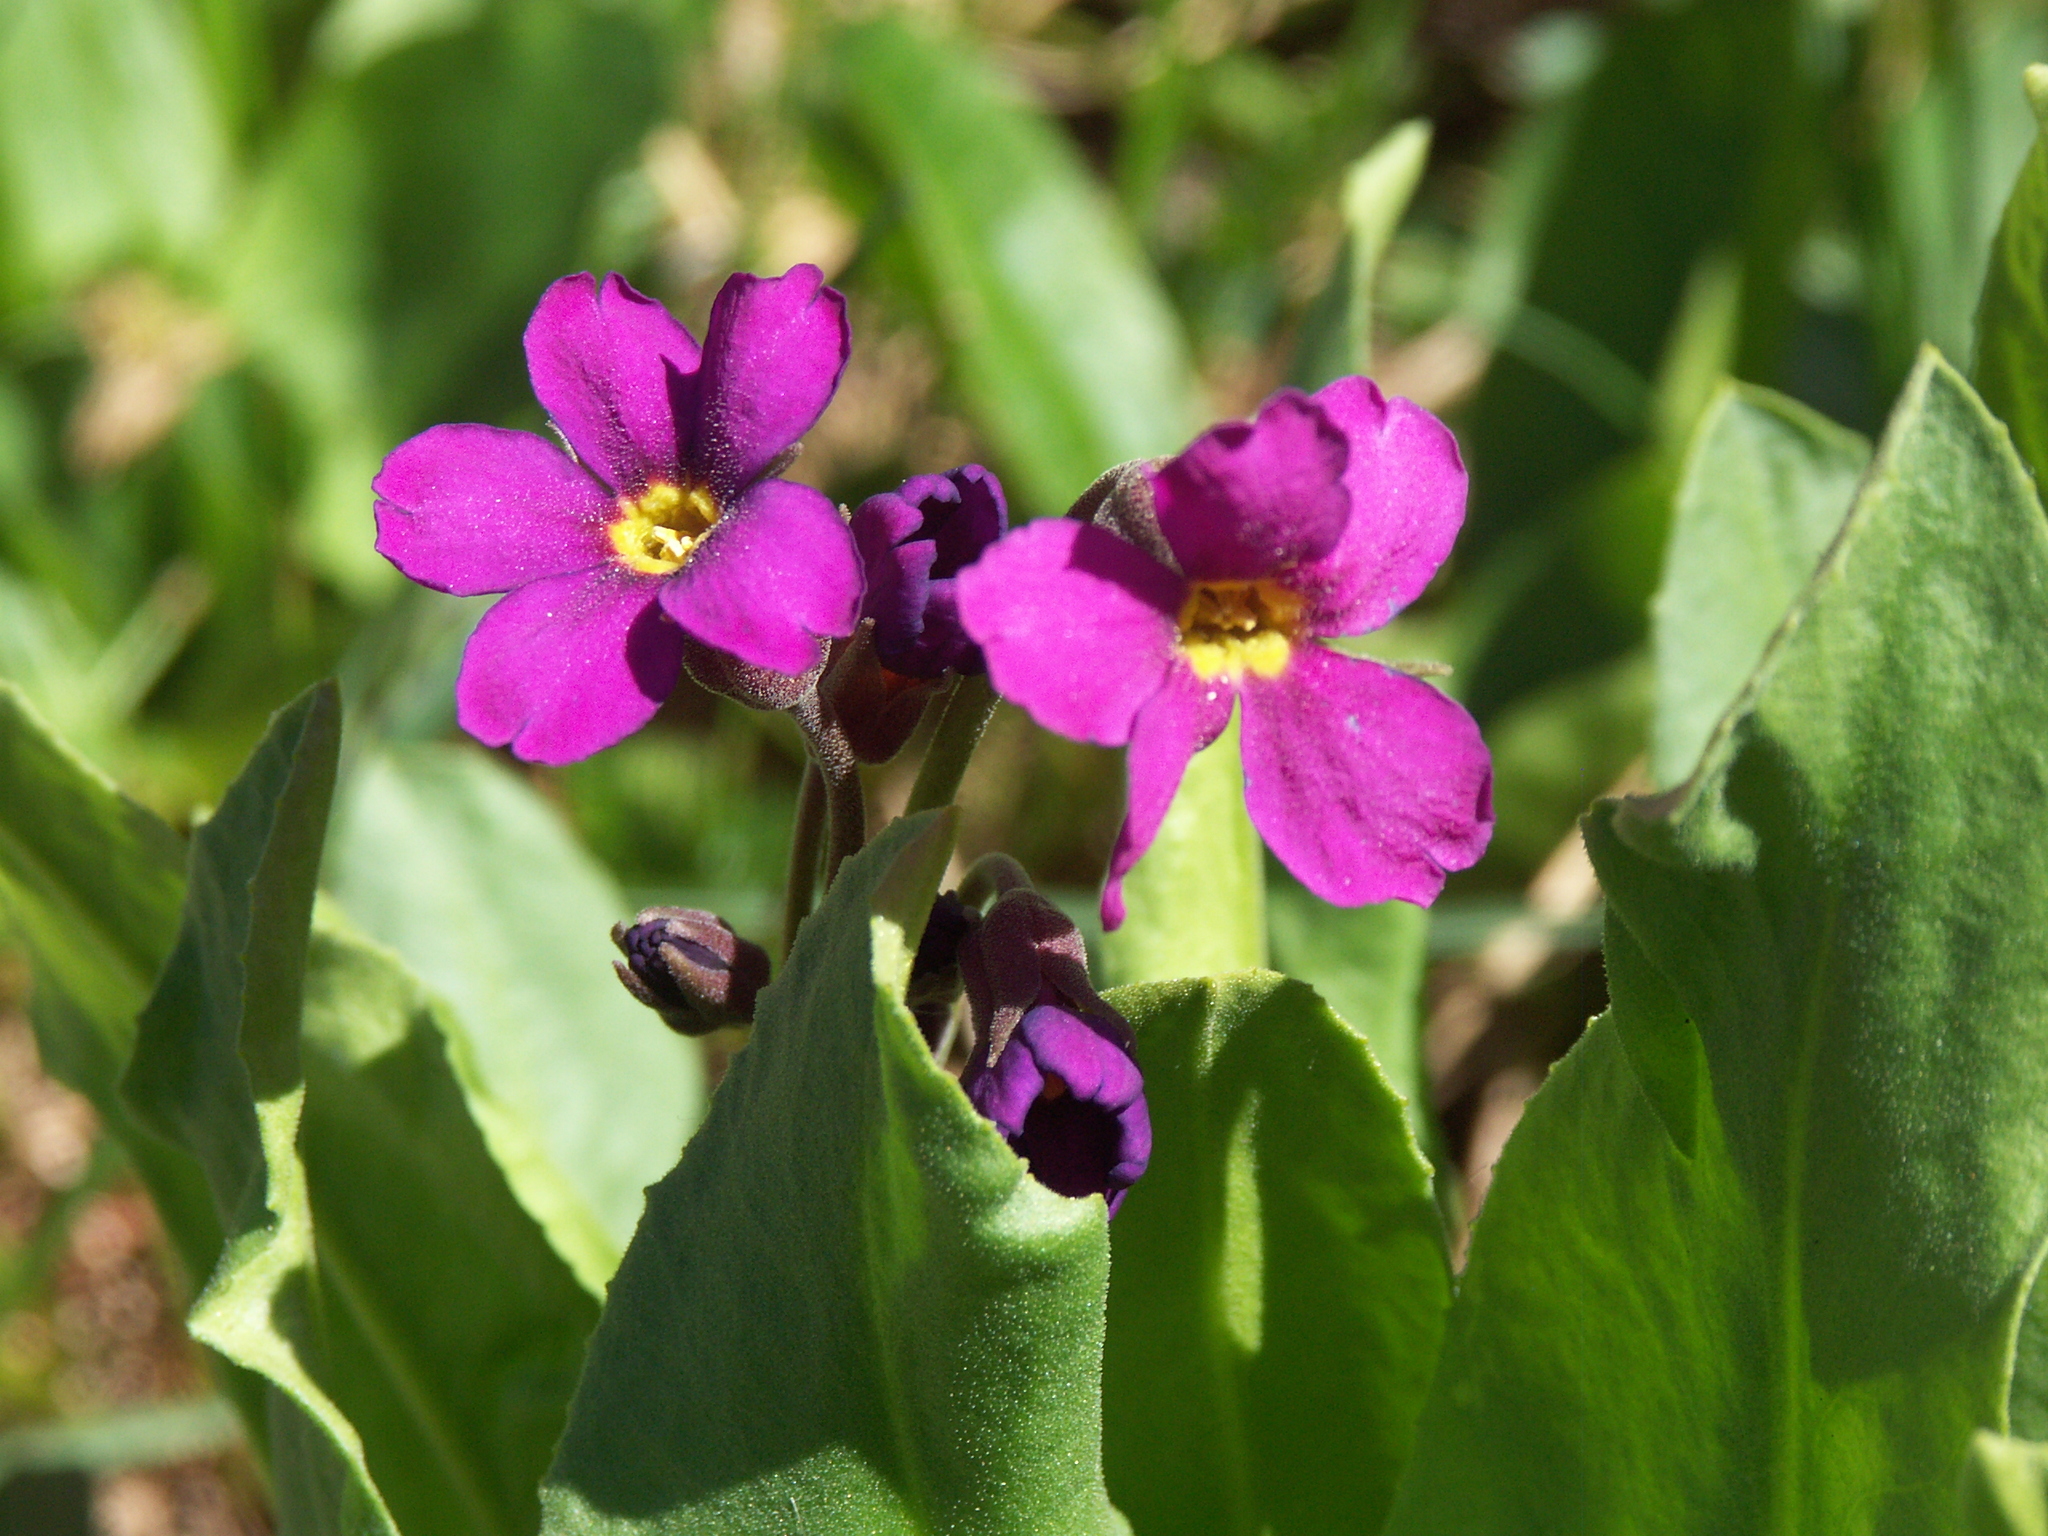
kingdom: Plantae
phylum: Tracheophyta
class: Magnoliopsida
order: Ericales
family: Primulaceae
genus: Primula
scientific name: Primula parryi
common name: Parry's primrose
